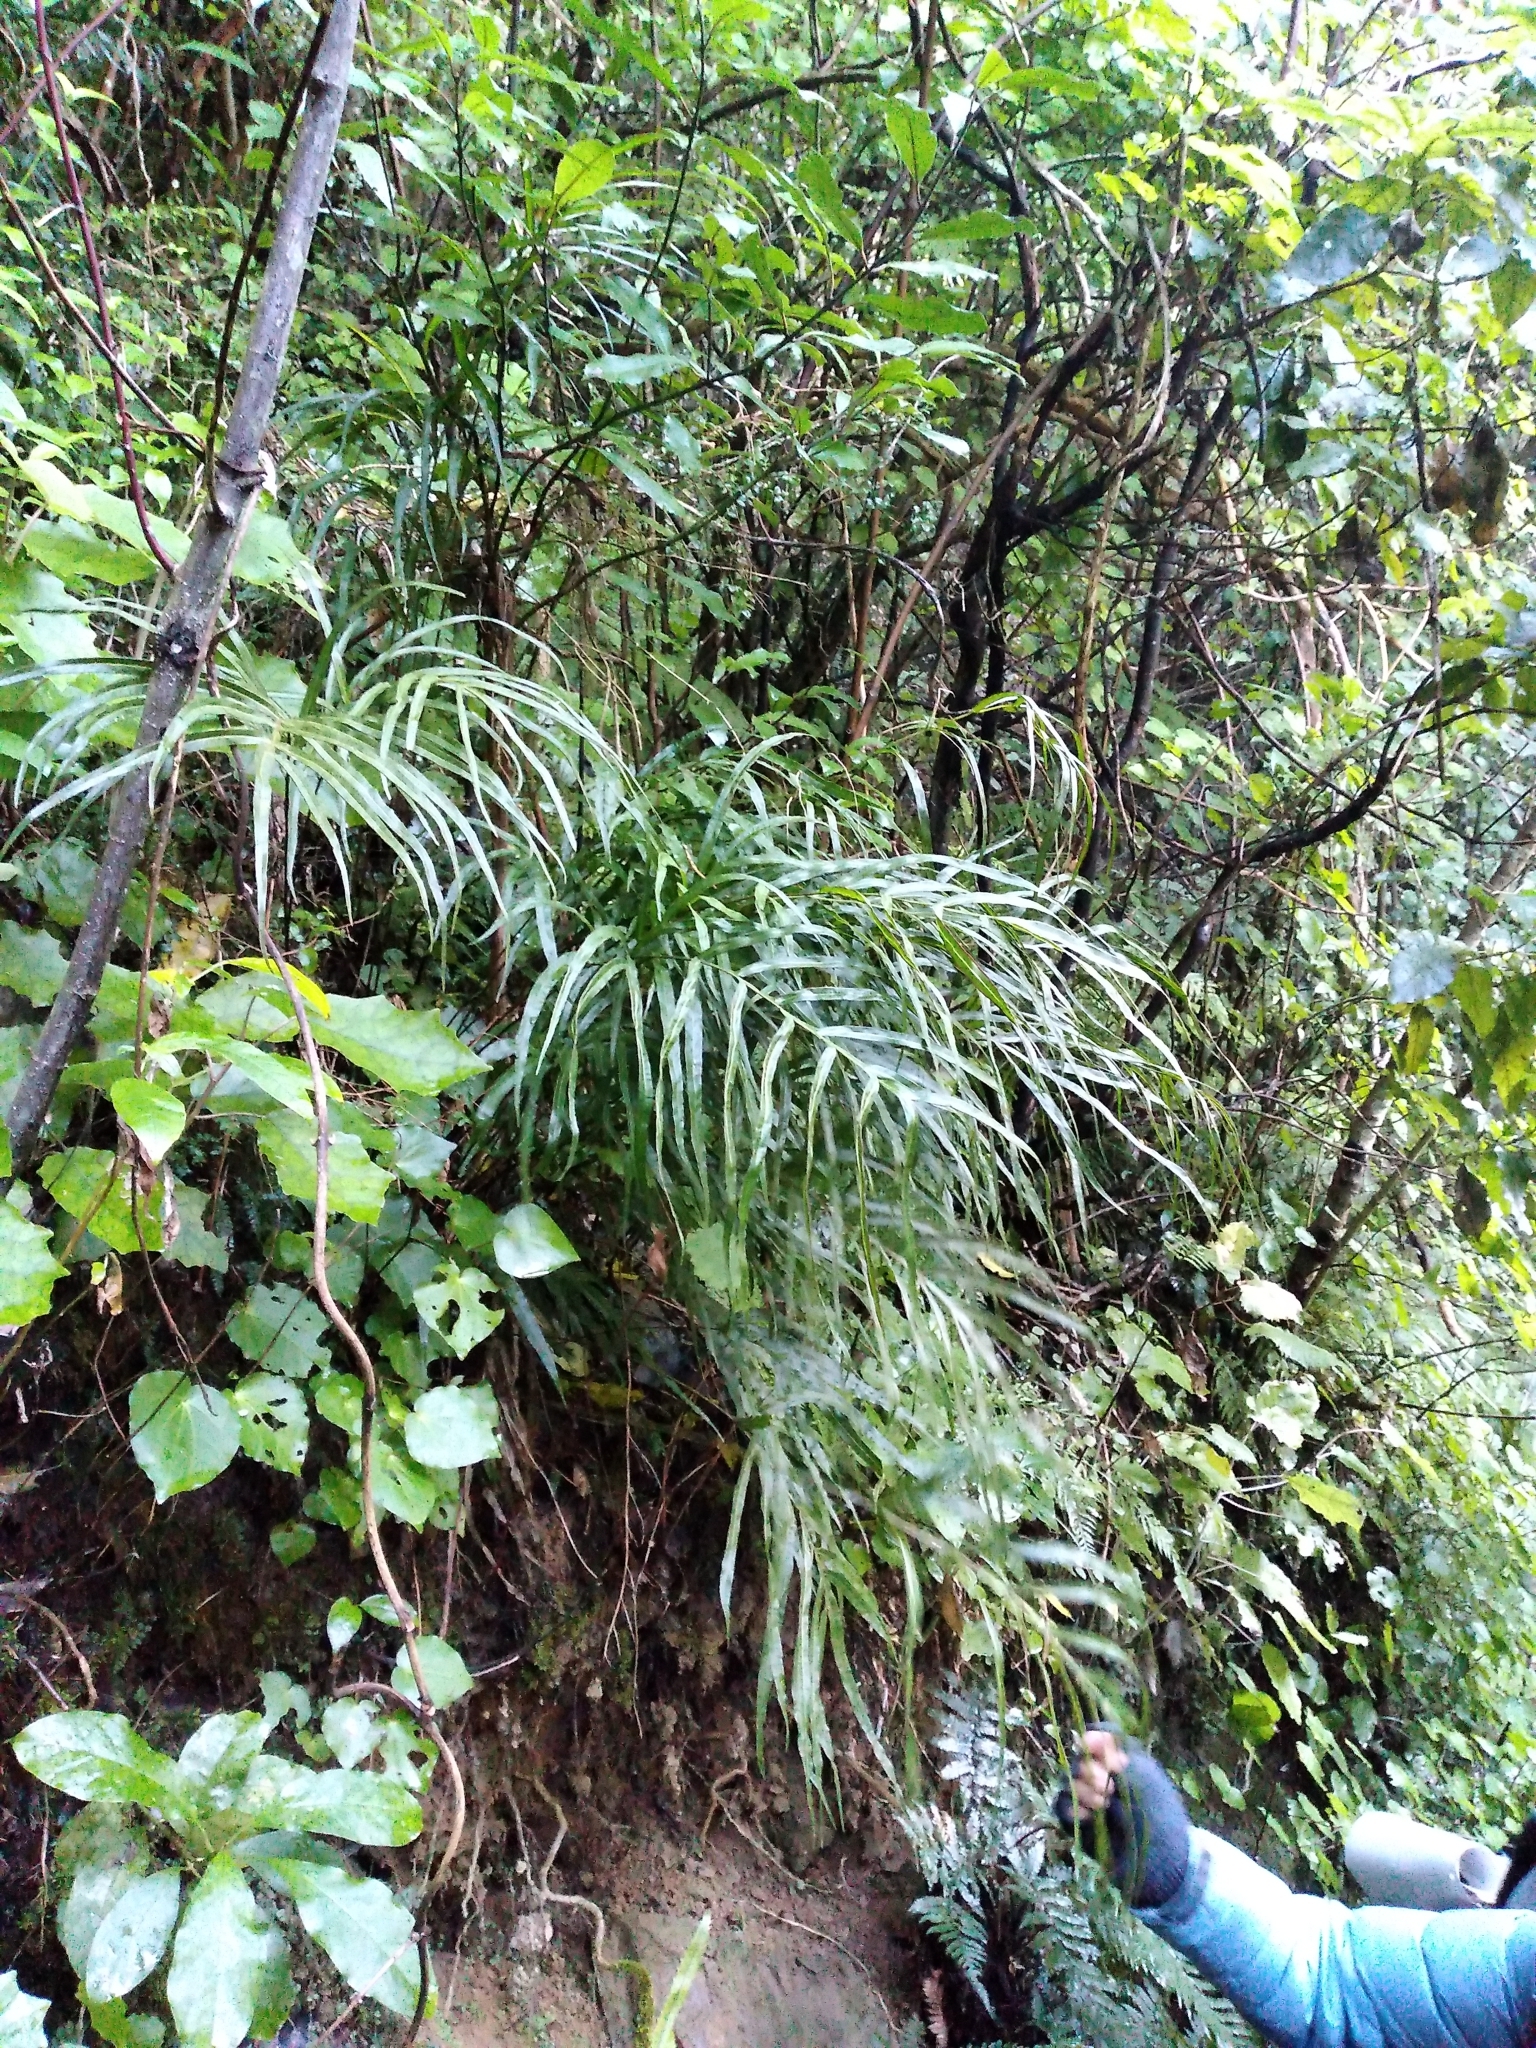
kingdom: Plantae
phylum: Tracheophyta
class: Polypodiopsida
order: Polypodiales
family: Pteridaceae
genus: Pteris
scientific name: Pteris cretica
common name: Ribbon fern
